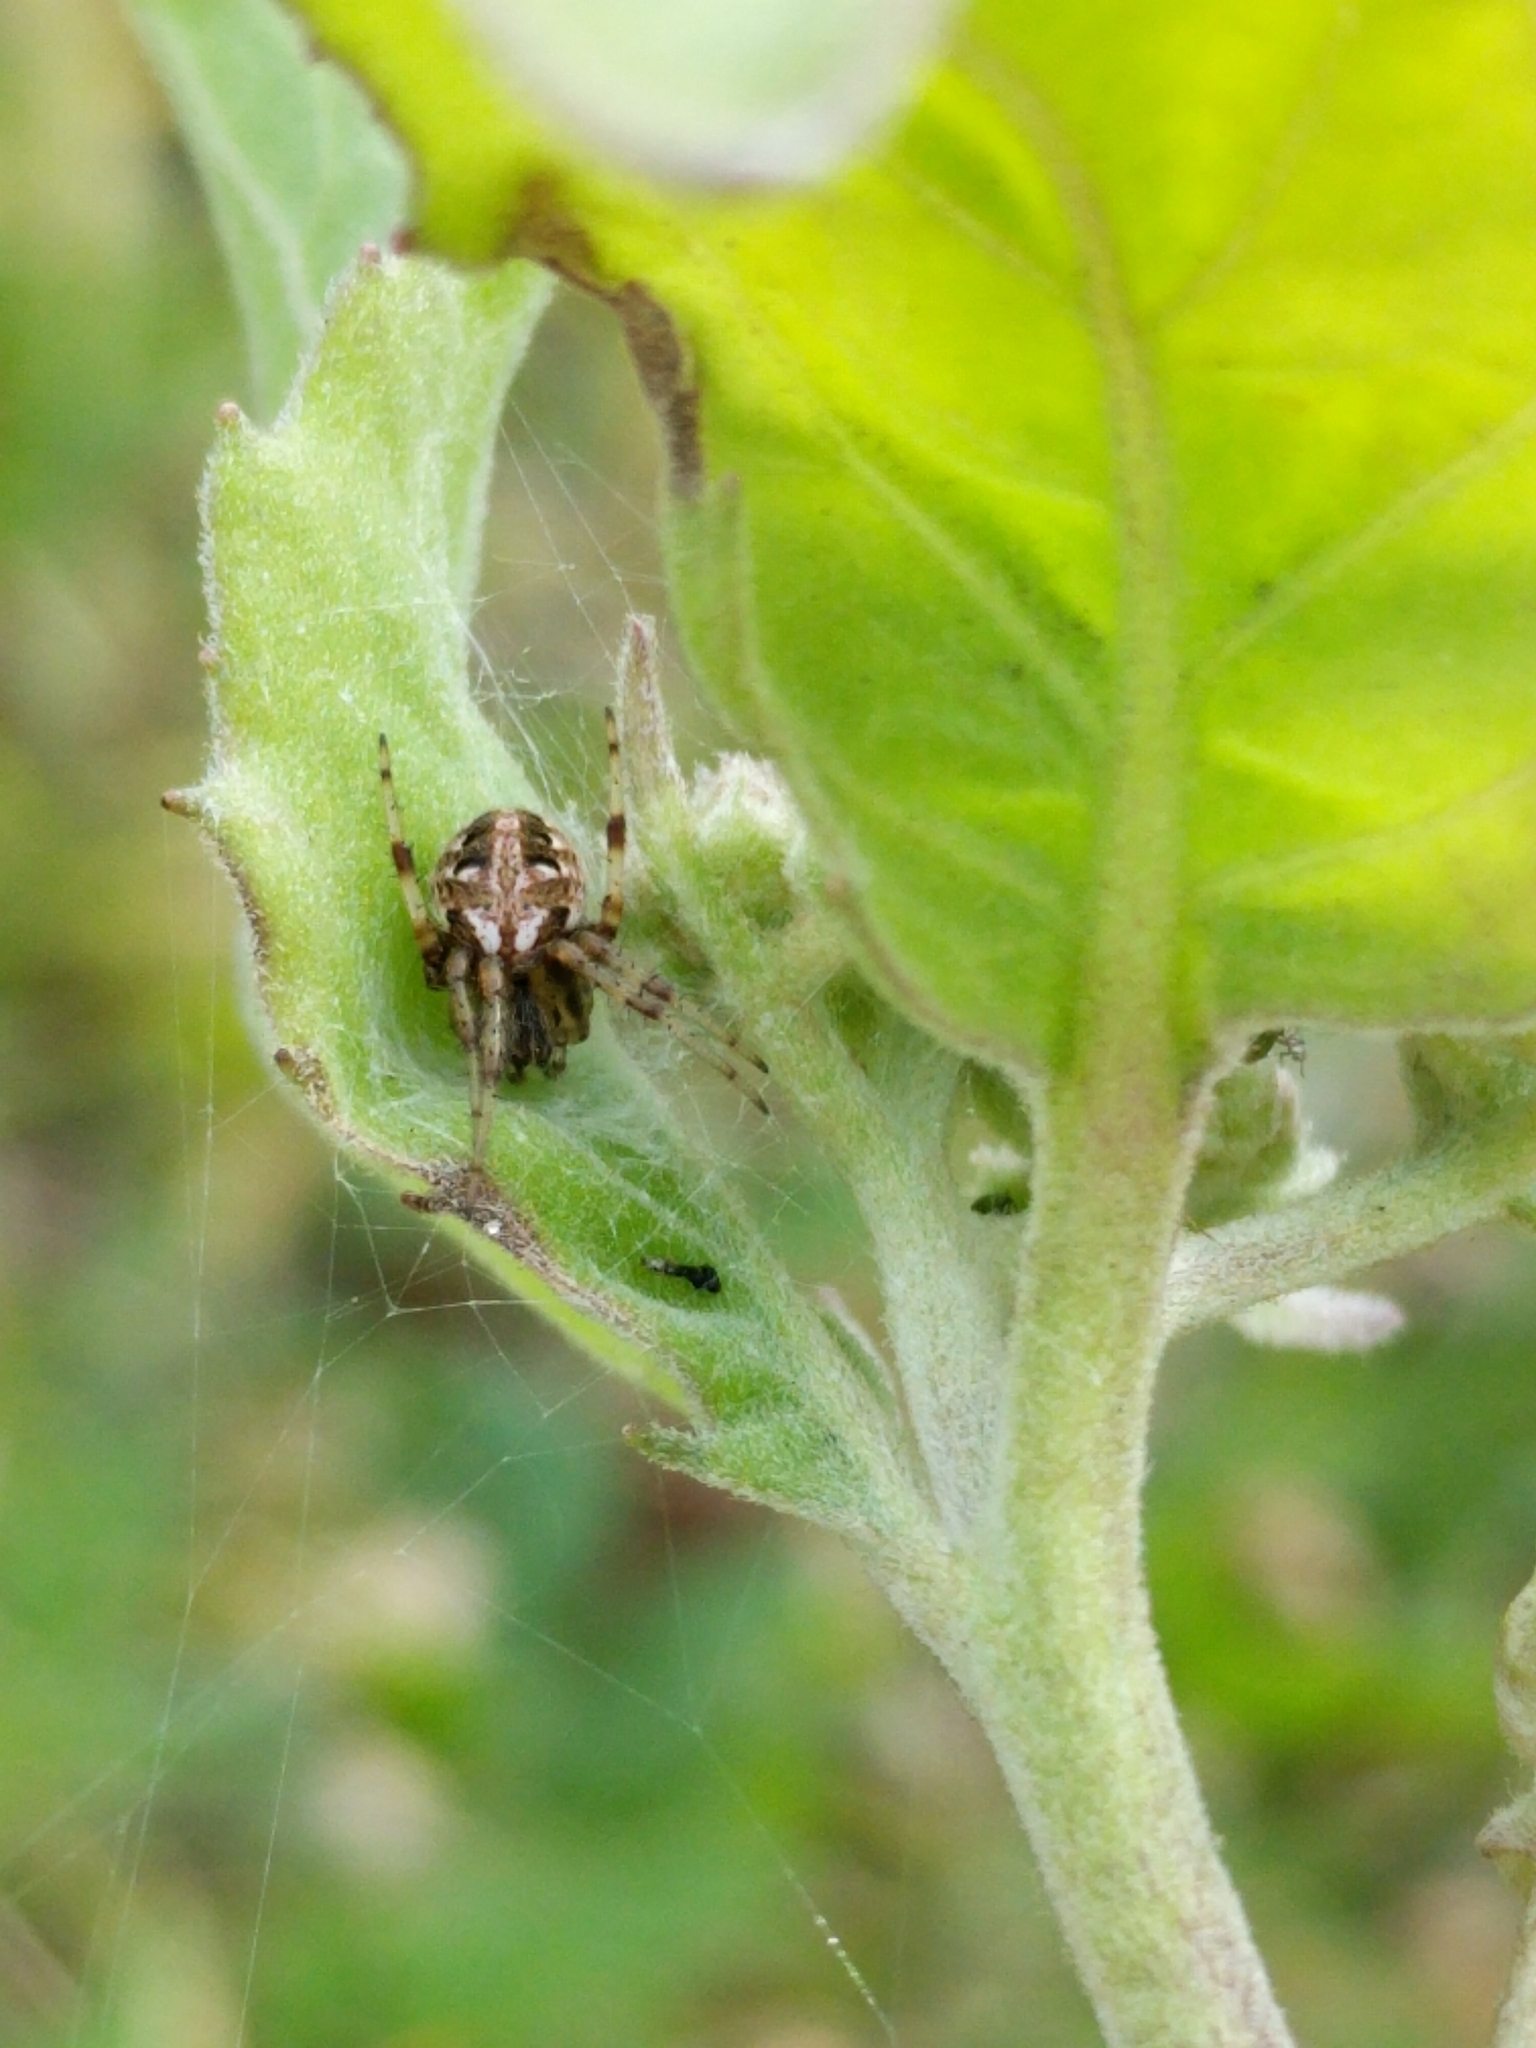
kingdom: Animalia
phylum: Arthropoda
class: Arachnida
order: Araneae
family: Araneidae
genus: Neoscona
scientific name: Neoscona arabesca
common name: Orb weavers
